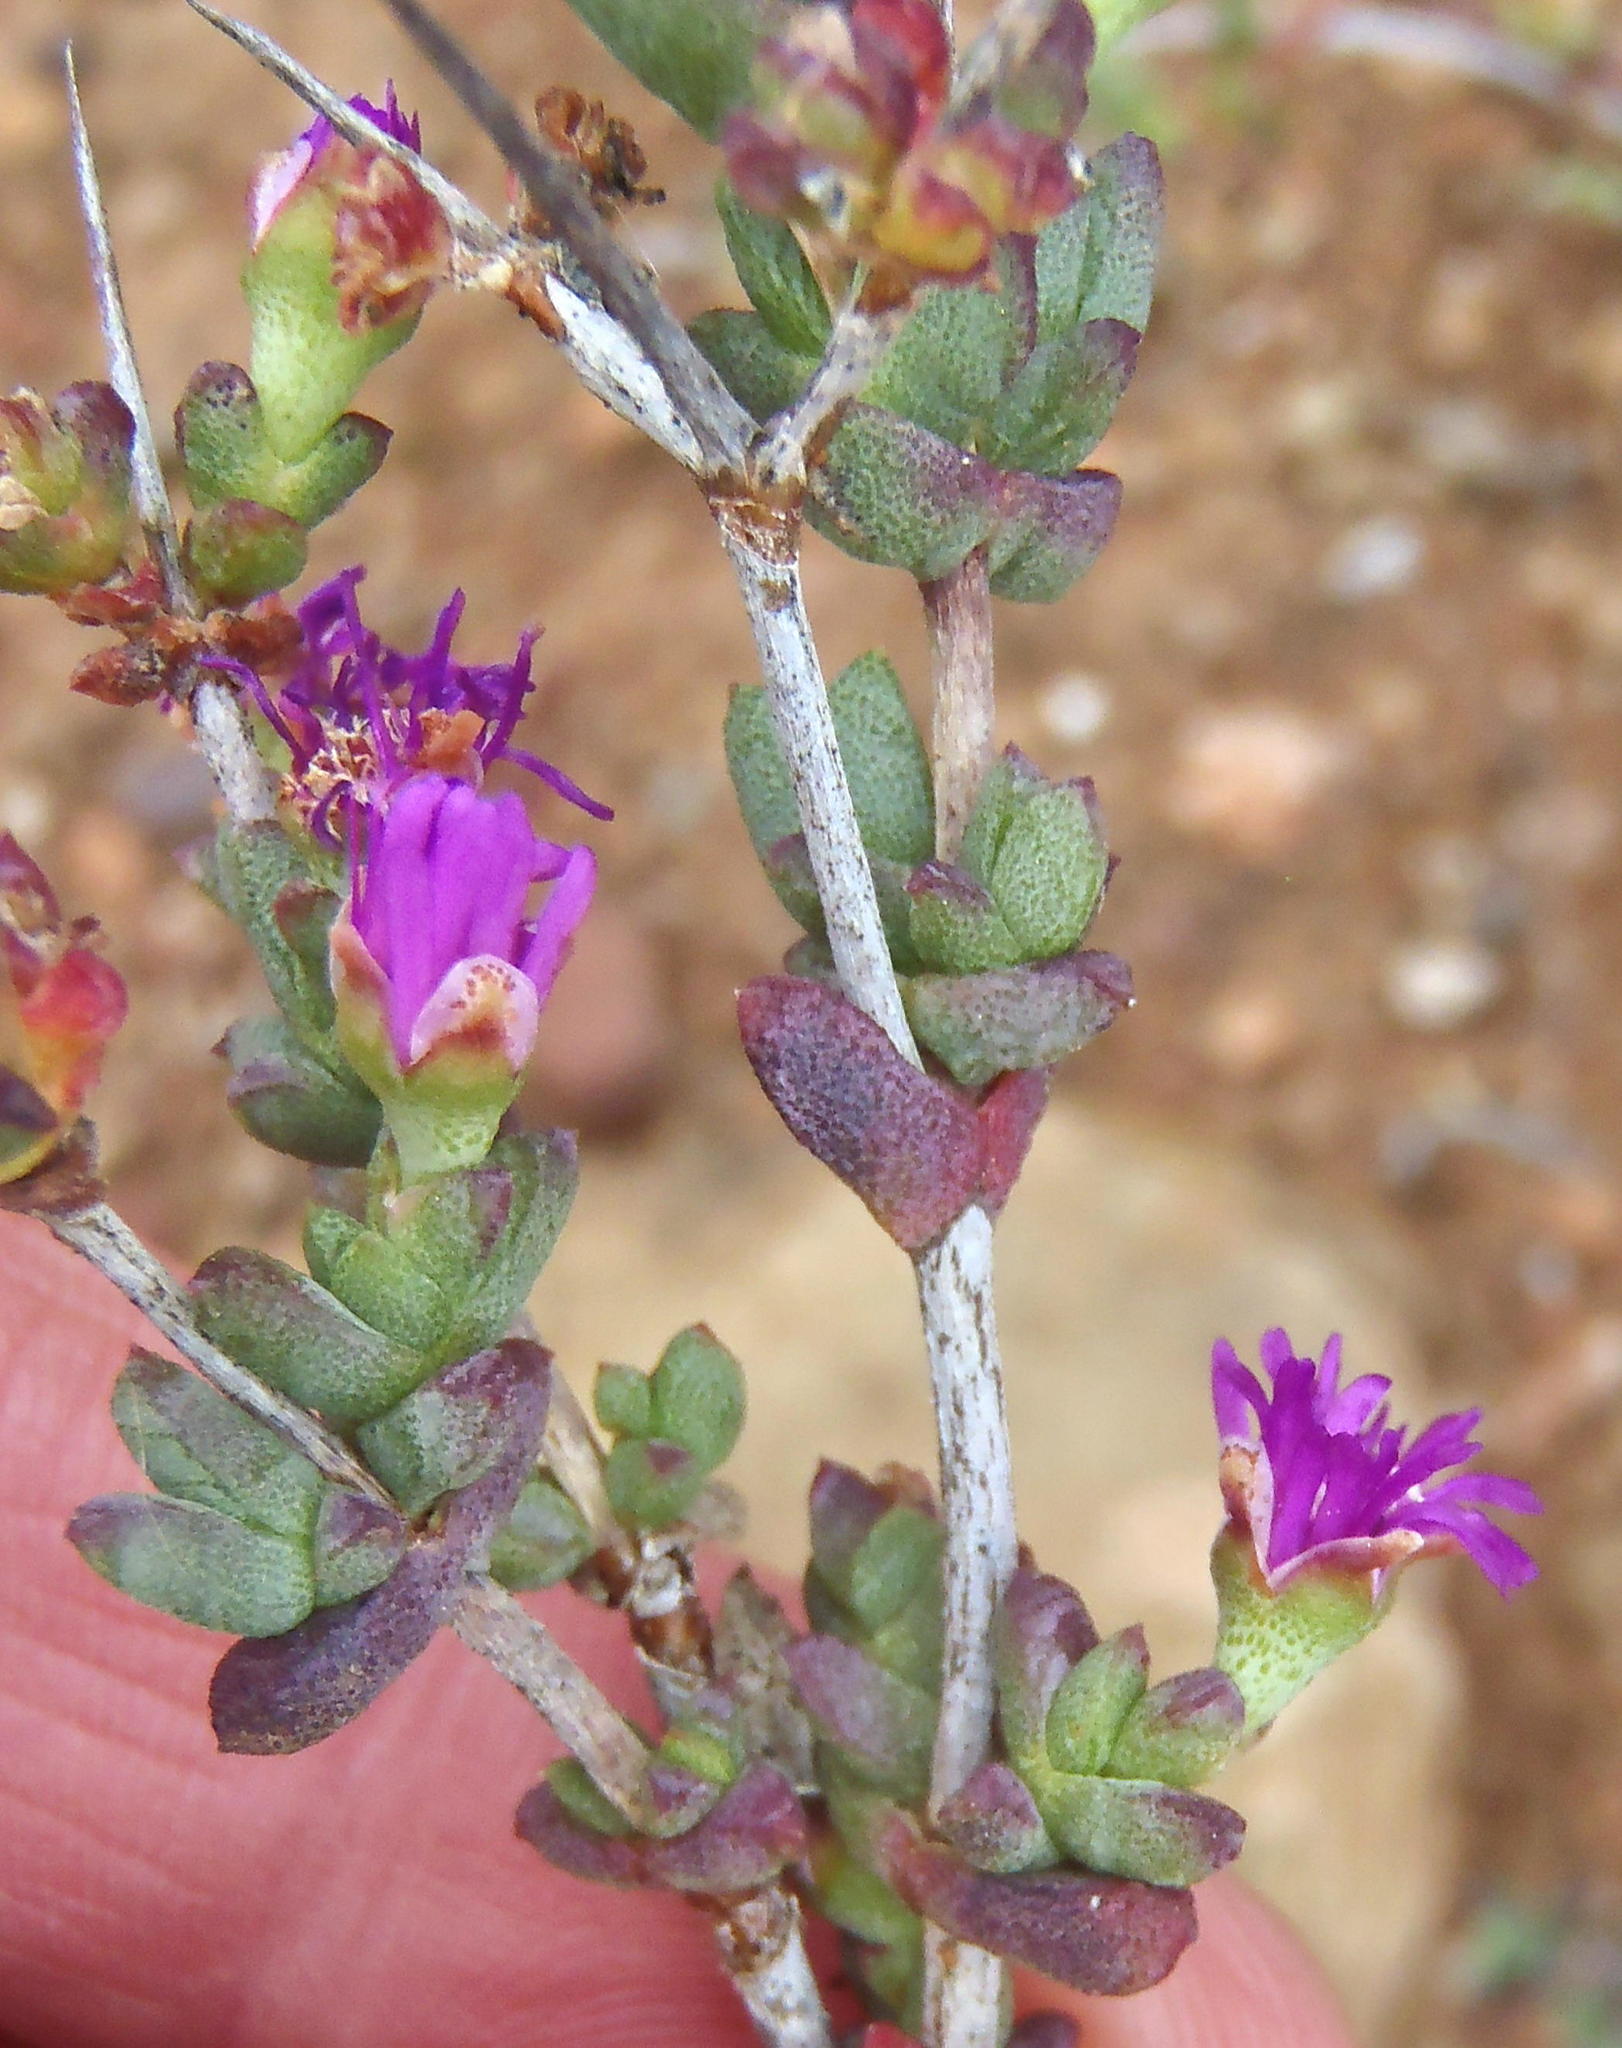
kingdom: Plantae
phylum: Tracheophyta
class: Magnoliopsida
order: Caryophyllales
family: Aizoaceae
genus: Ruschia
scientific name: Ruschia cradockensis
